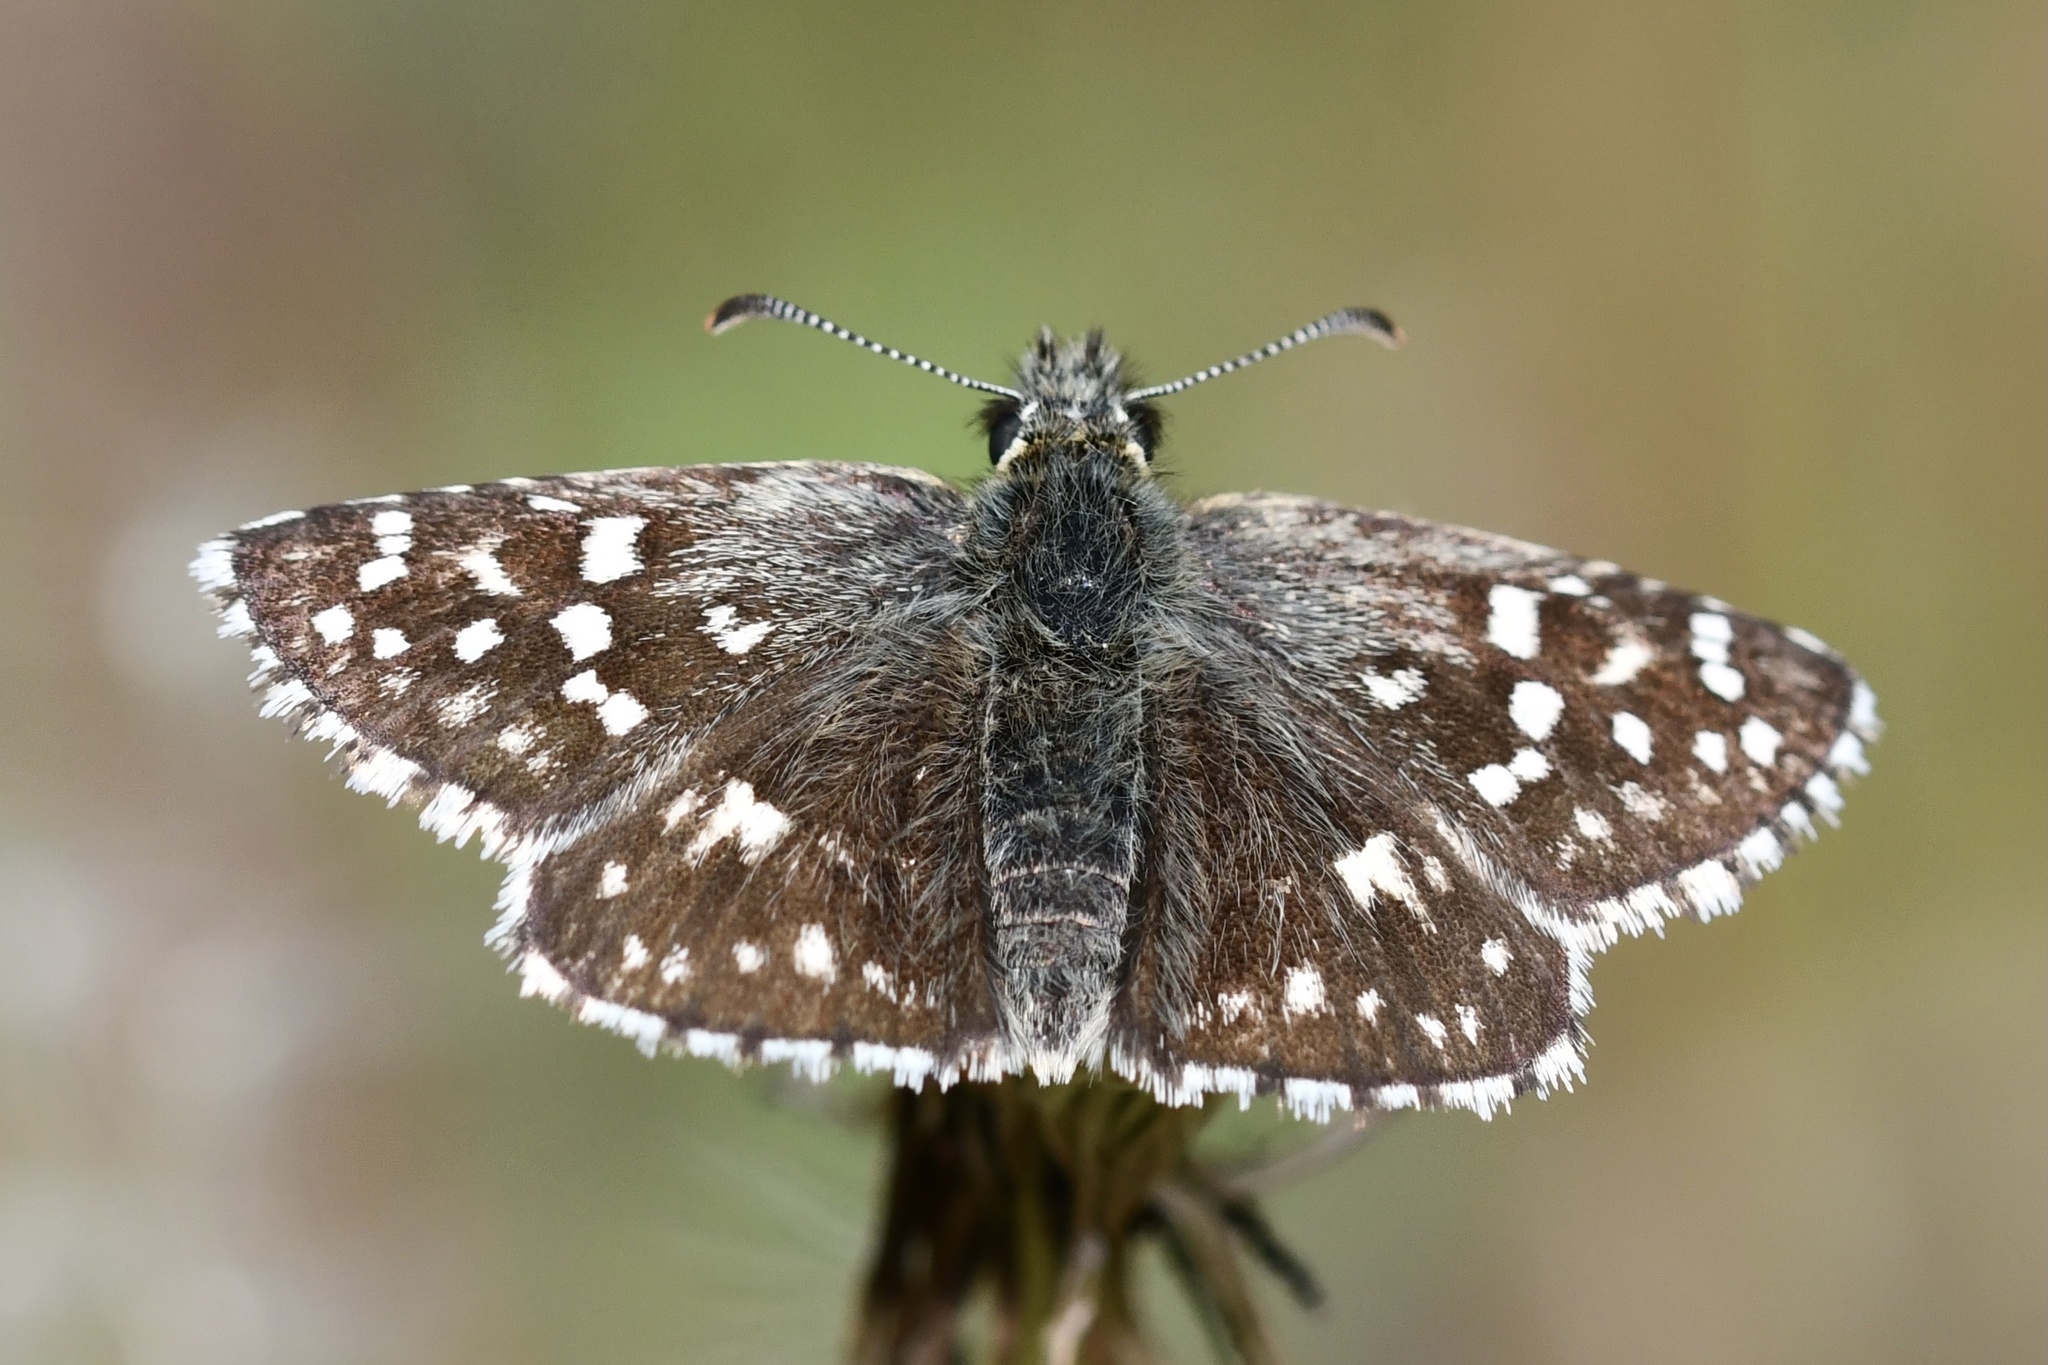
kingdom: Animalia
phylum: Arthropoda
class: Insecta
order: Lepidoptera
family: Hesperiidae
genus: Pyrgus
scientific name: Pyrgus malvae
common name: Grizzled skipper
